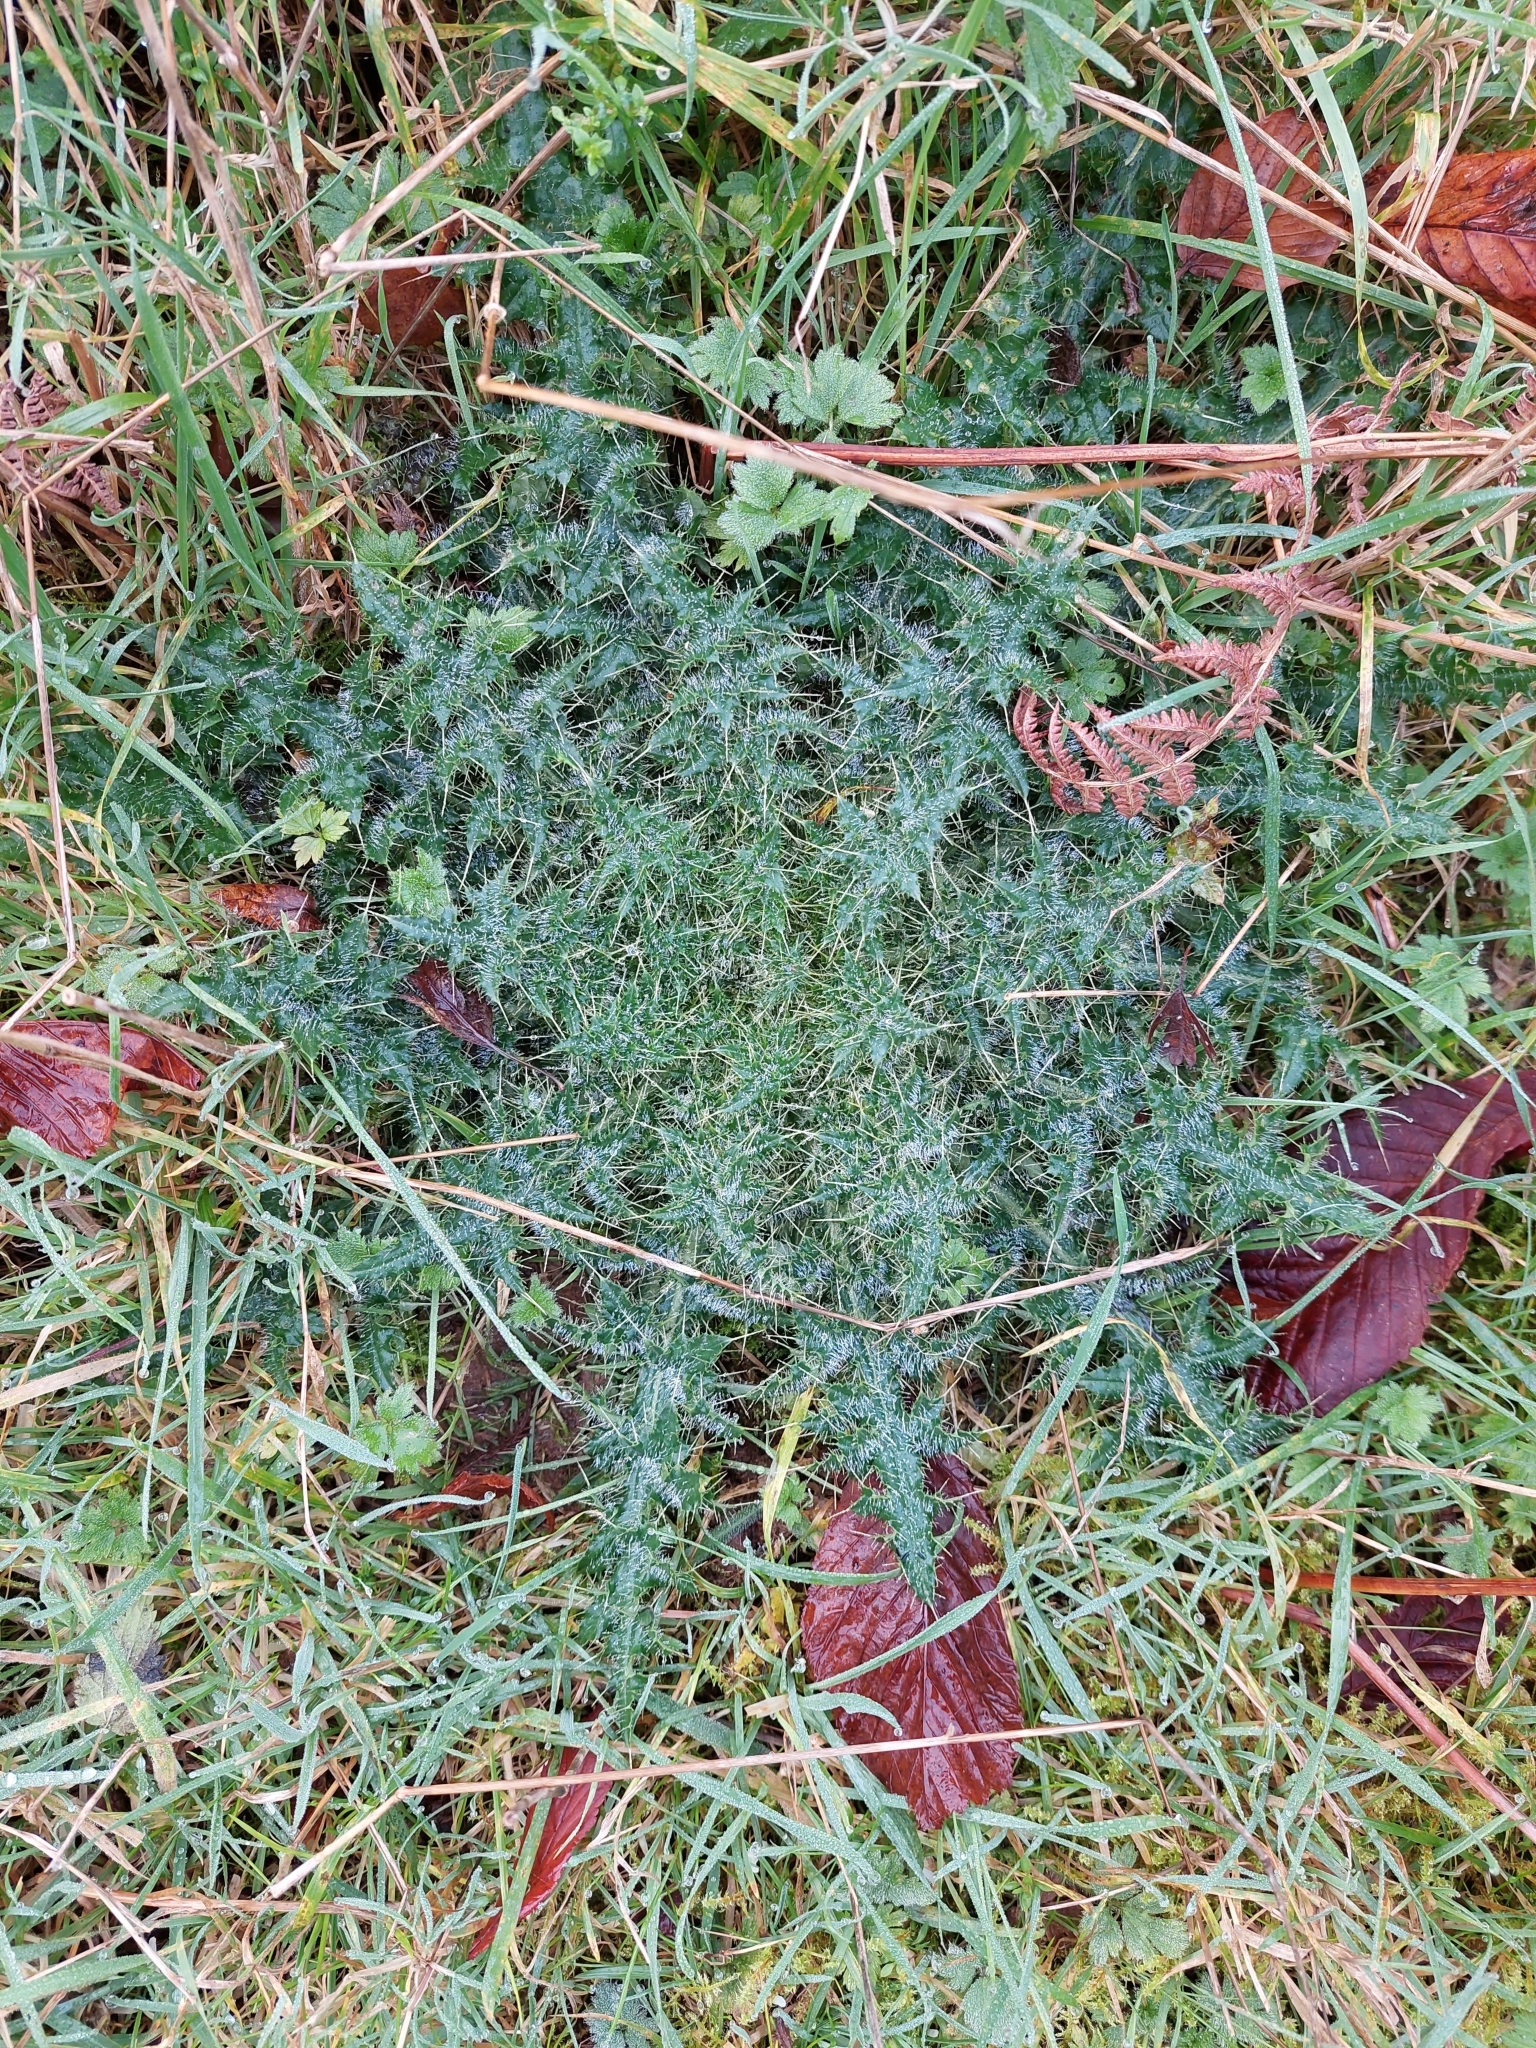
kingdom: Plantae
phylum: Tracheophyta
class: Magnoliopsida
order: Asterales
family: Asteraceae
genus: Cirsium
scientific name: Cirsium vulgare
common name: Bull thistle
